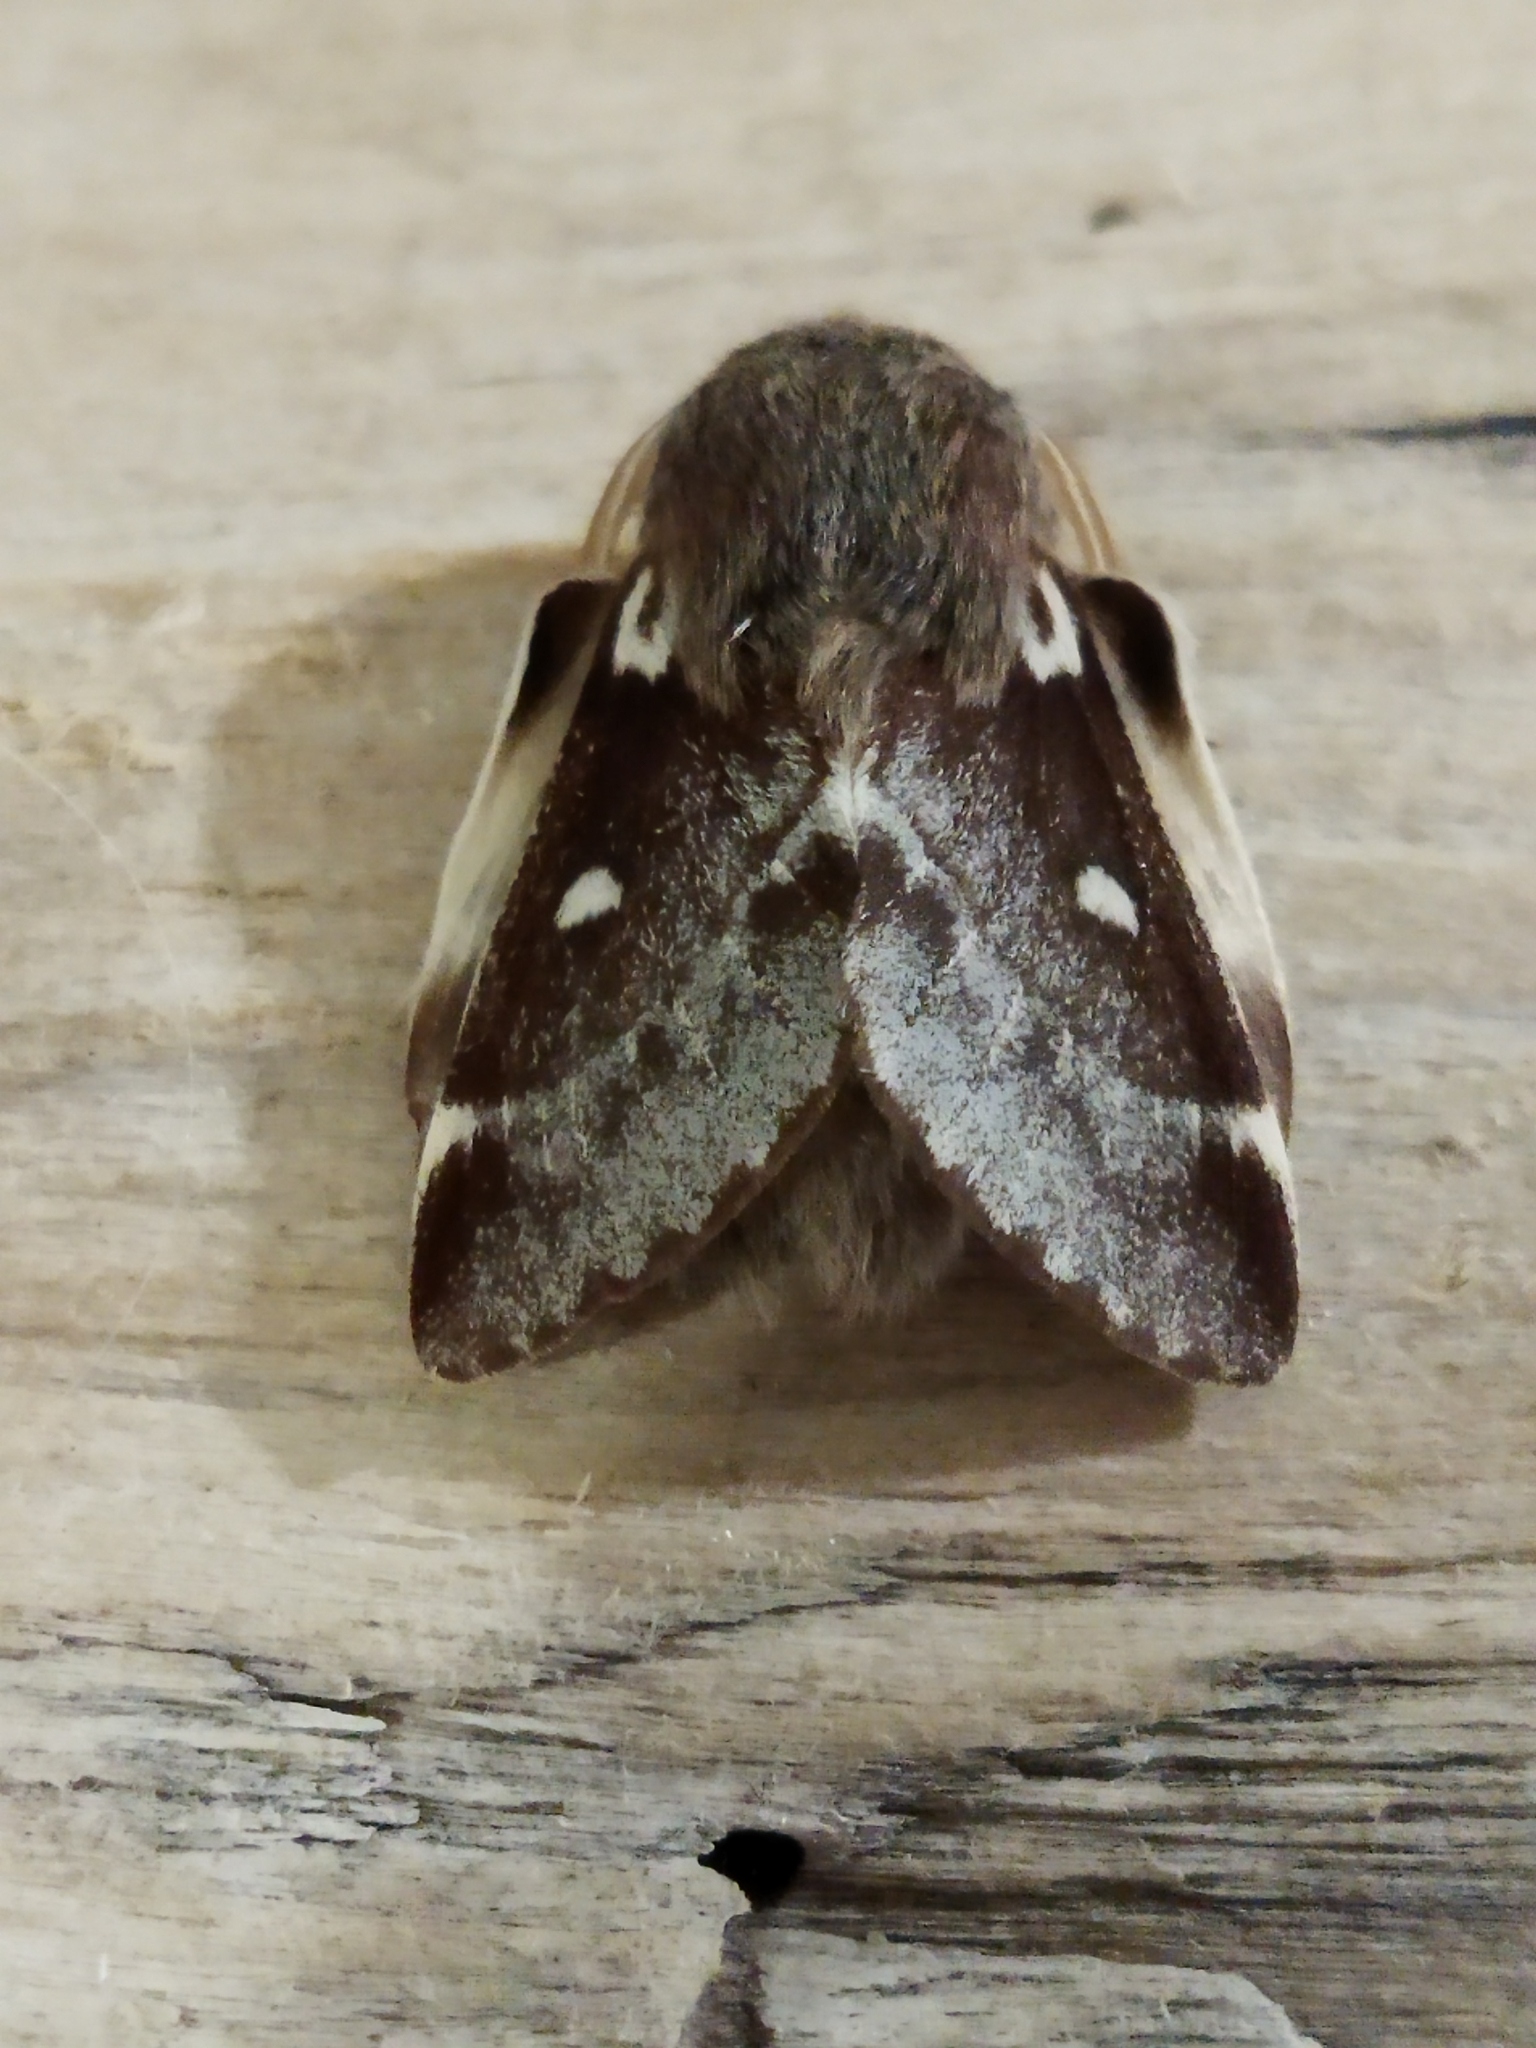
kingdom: Animalia
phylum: Arthropoda
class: Insecta
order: Lepidoptera
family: Lasiocampidae
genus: Eriogaster
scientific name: Eriogaster lanestris
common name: Small eggar
